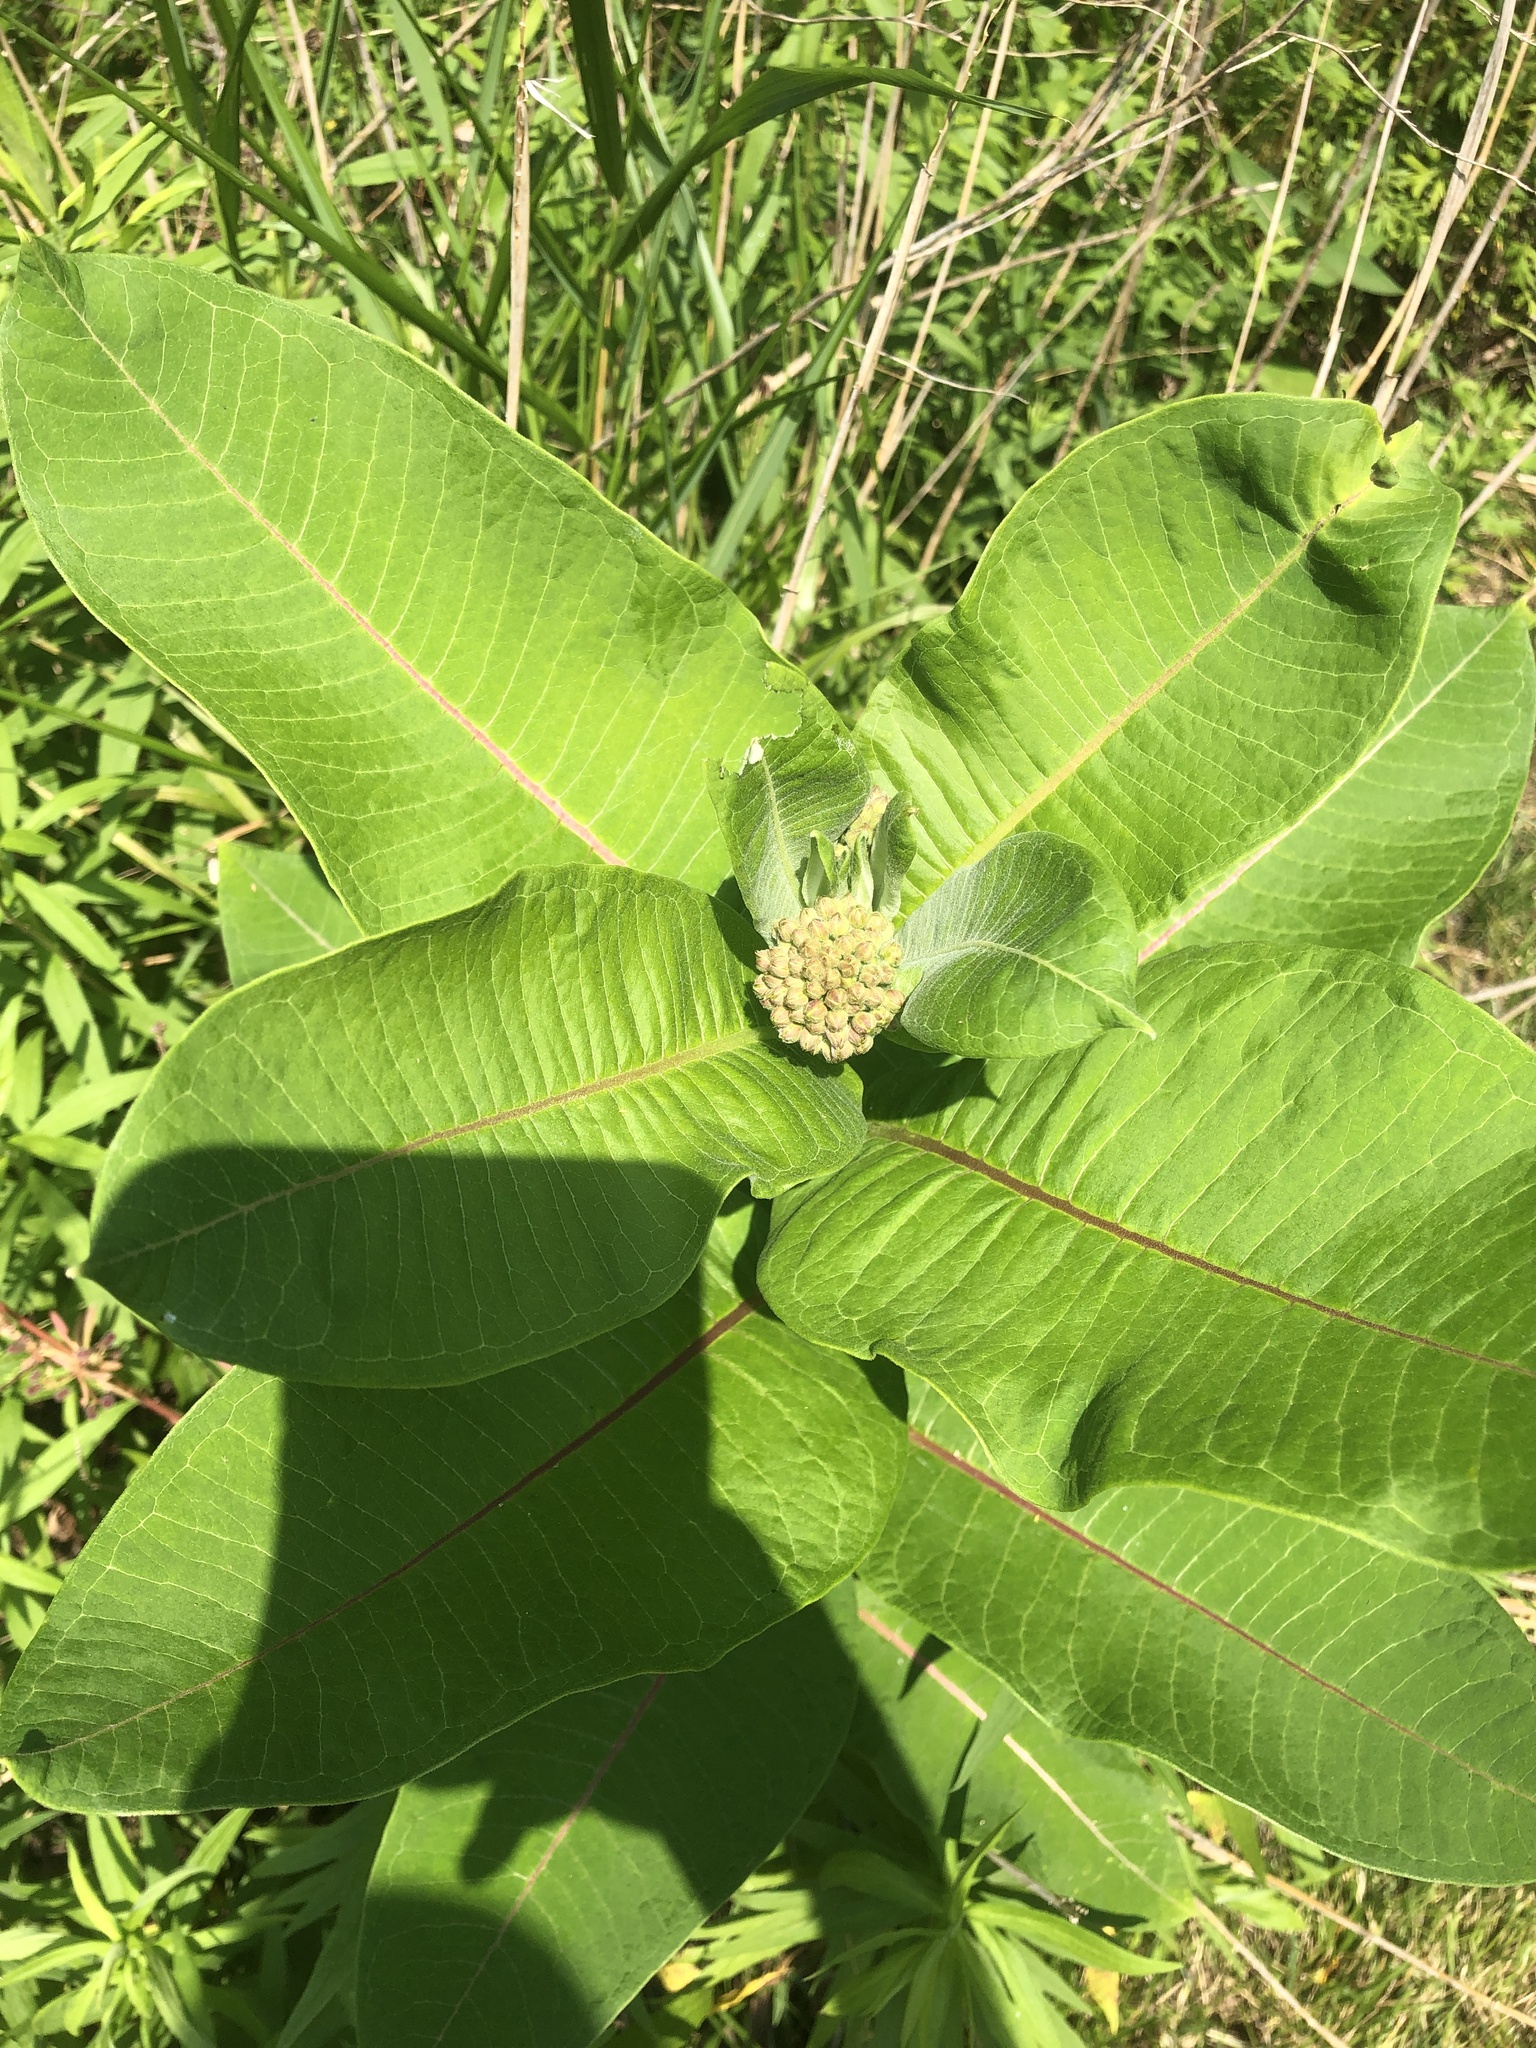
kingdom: Plantae
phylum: Tracheophyta
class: Magnoliopsida
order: Gentianales
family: Apocynaceae
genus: Asclepias
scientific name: Asclepias syriaca
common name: Common milkweed
